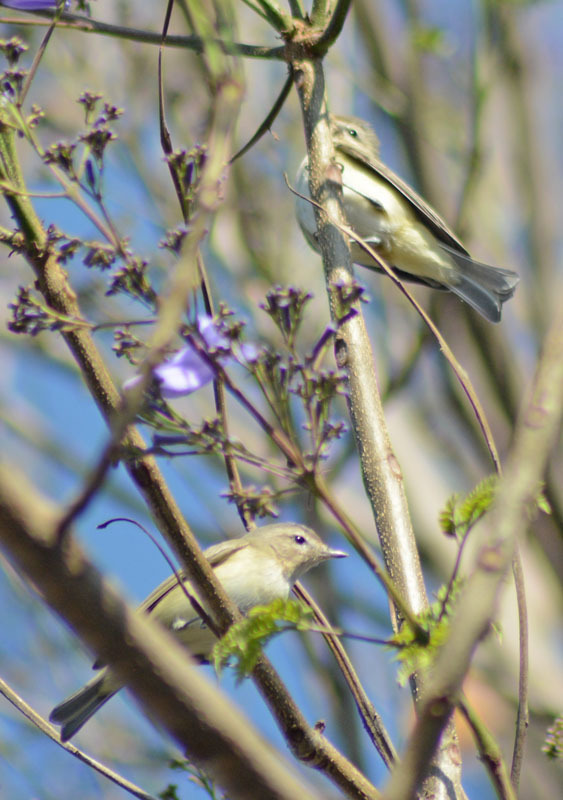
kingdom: Animalia
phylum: Chordata
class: Aves
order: Passeriformes
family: Vireonidae
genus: Vireo
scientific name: Vireo gilvus
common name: Warbling vireo
